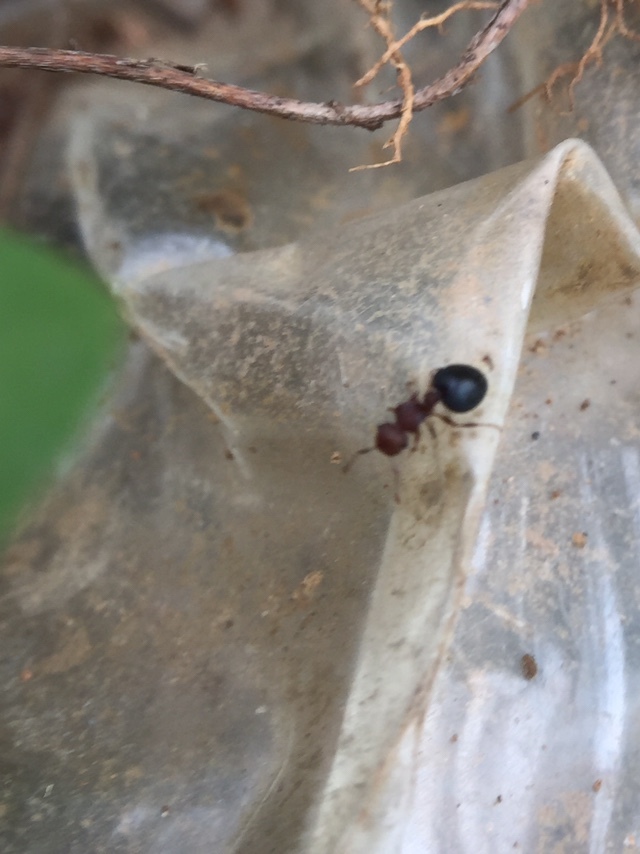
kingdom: Animalia
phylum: Arthropoda
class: Insecta
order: Hymenoptera
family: Formicidae
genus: Meranoplus
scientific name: Meranoplus bicolor
